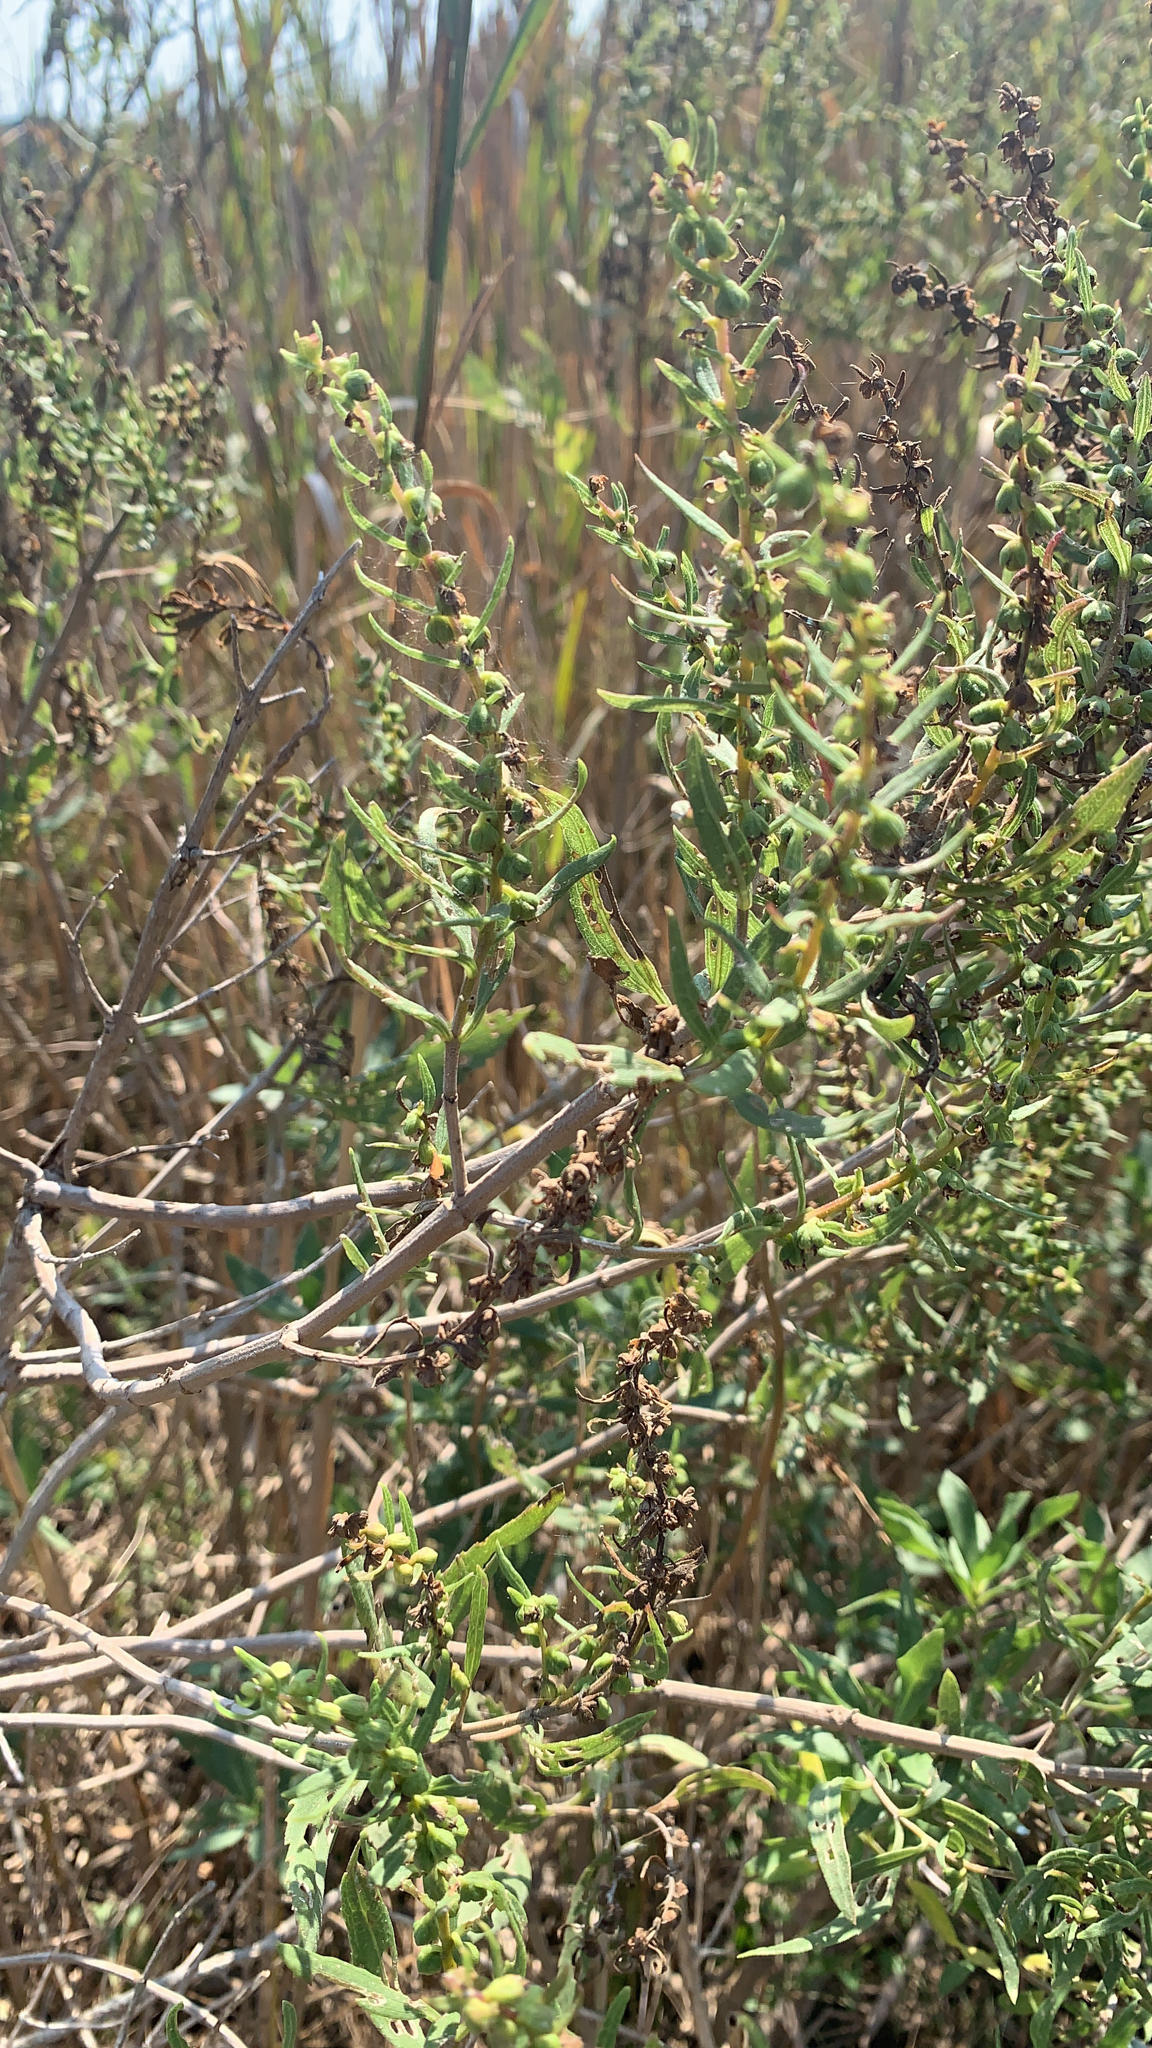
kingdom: Plantae
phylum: Tracheophyta
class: Magnoliopsida
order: Asterales
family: Asteraceae
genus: Iva
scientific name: Iva frutescens
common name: Big-leaved marsh-elder
